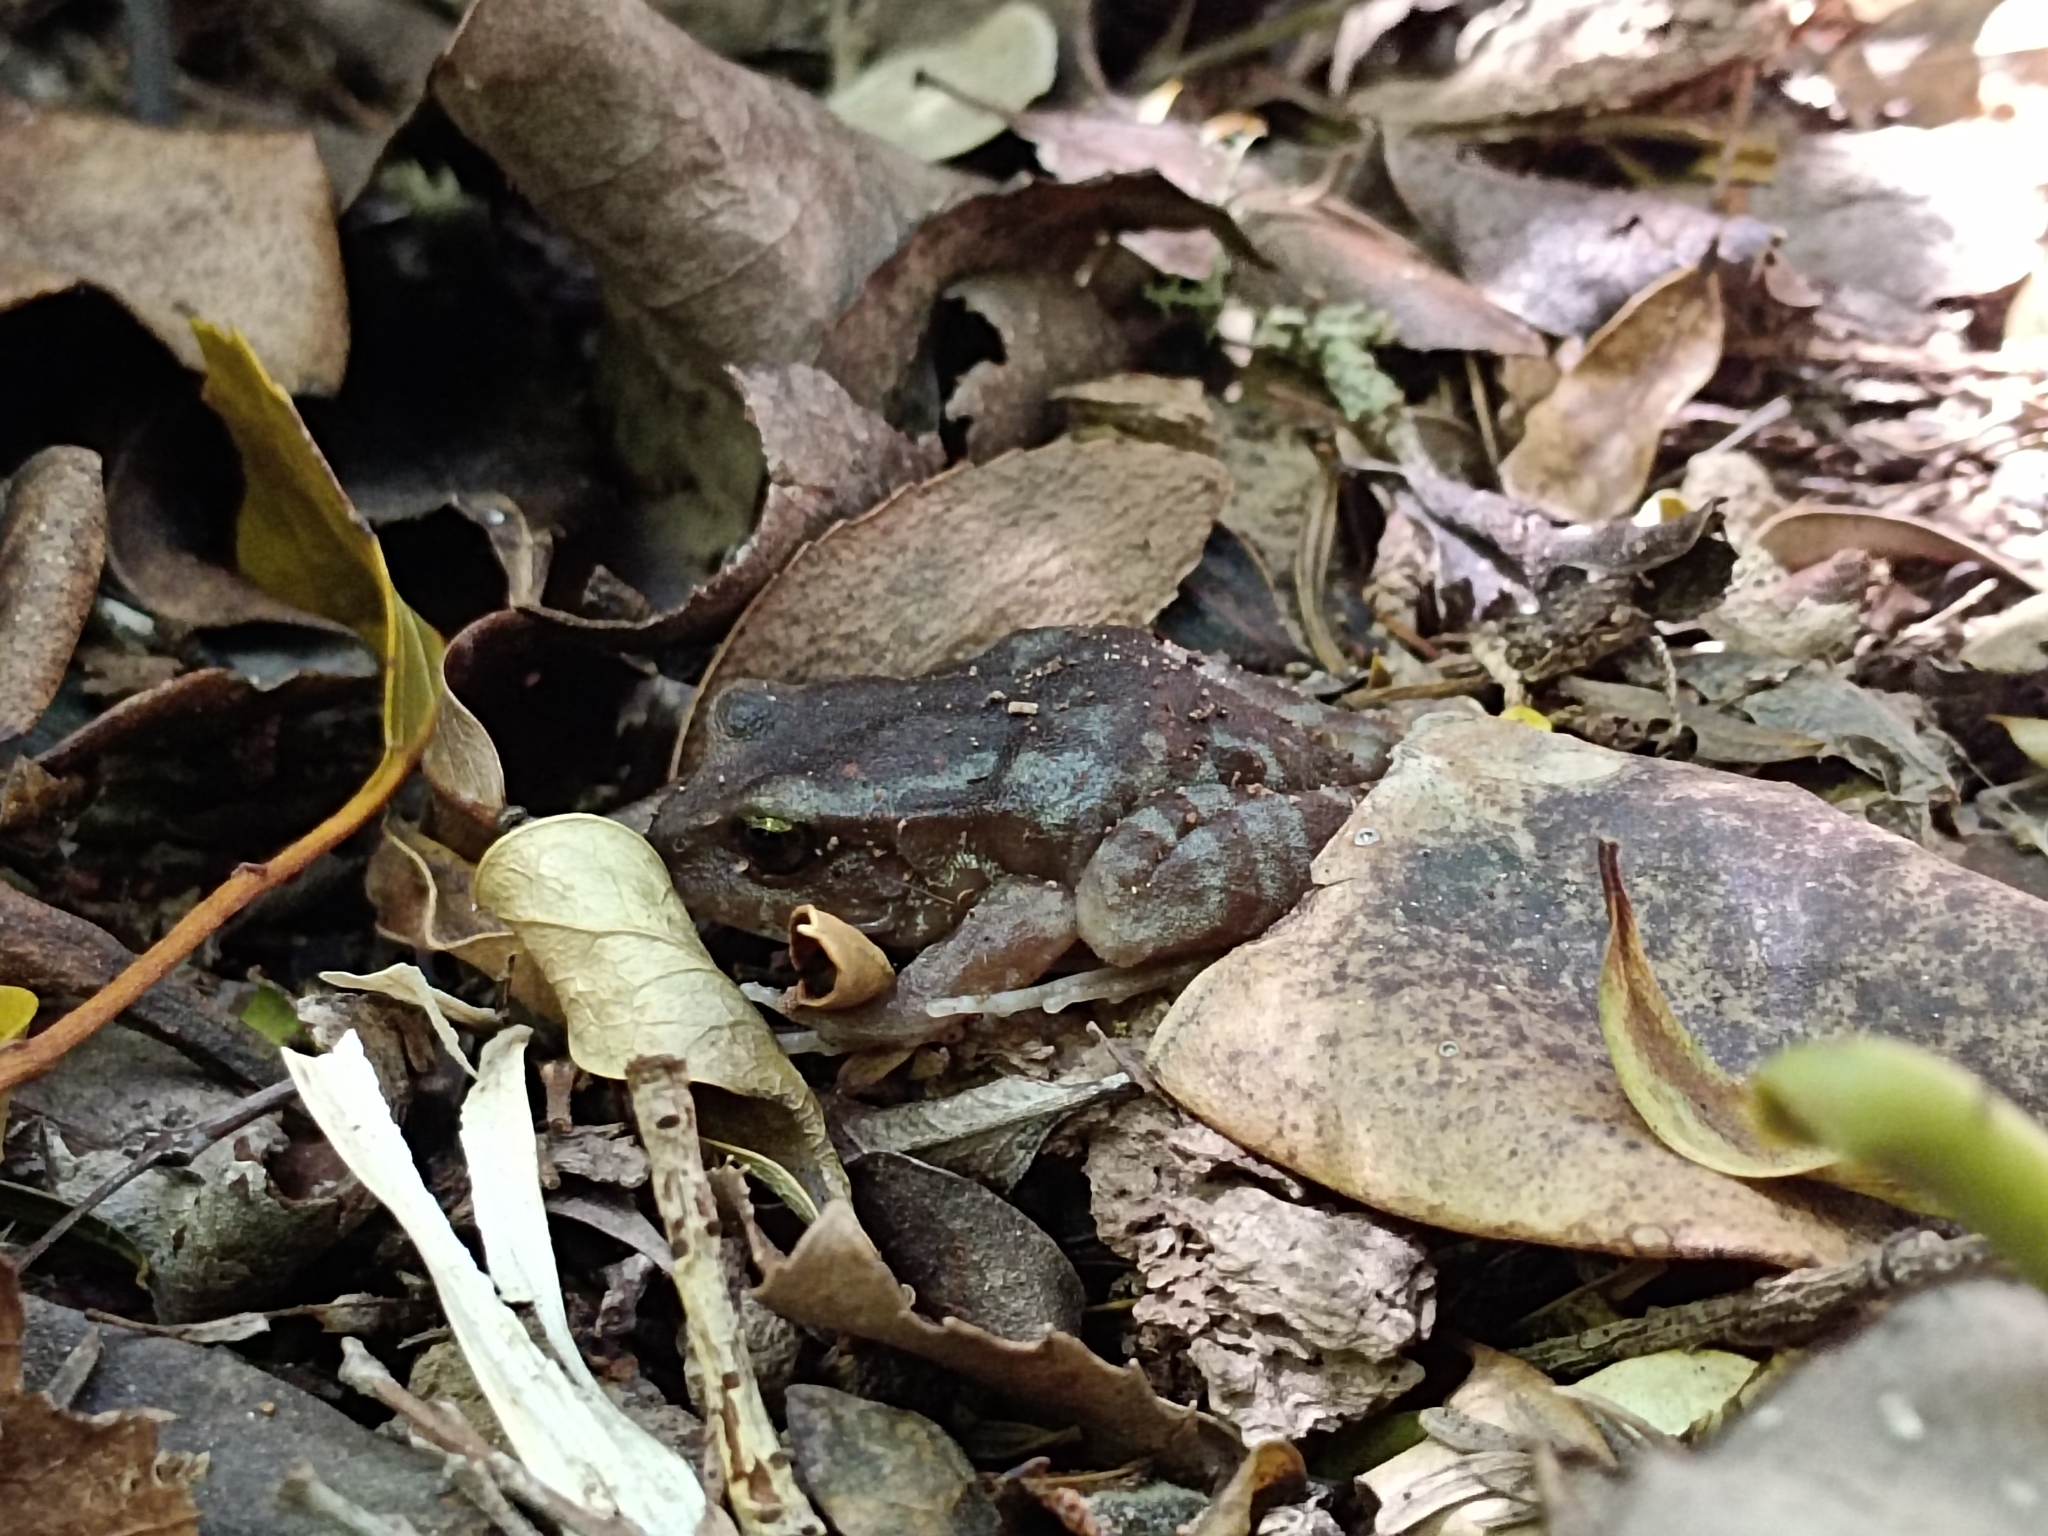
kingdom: Animalia
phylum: Chordata
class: Amphibia
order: Anura
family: Alsodidae
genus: Eupsophus
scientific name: Eupsophus altor
